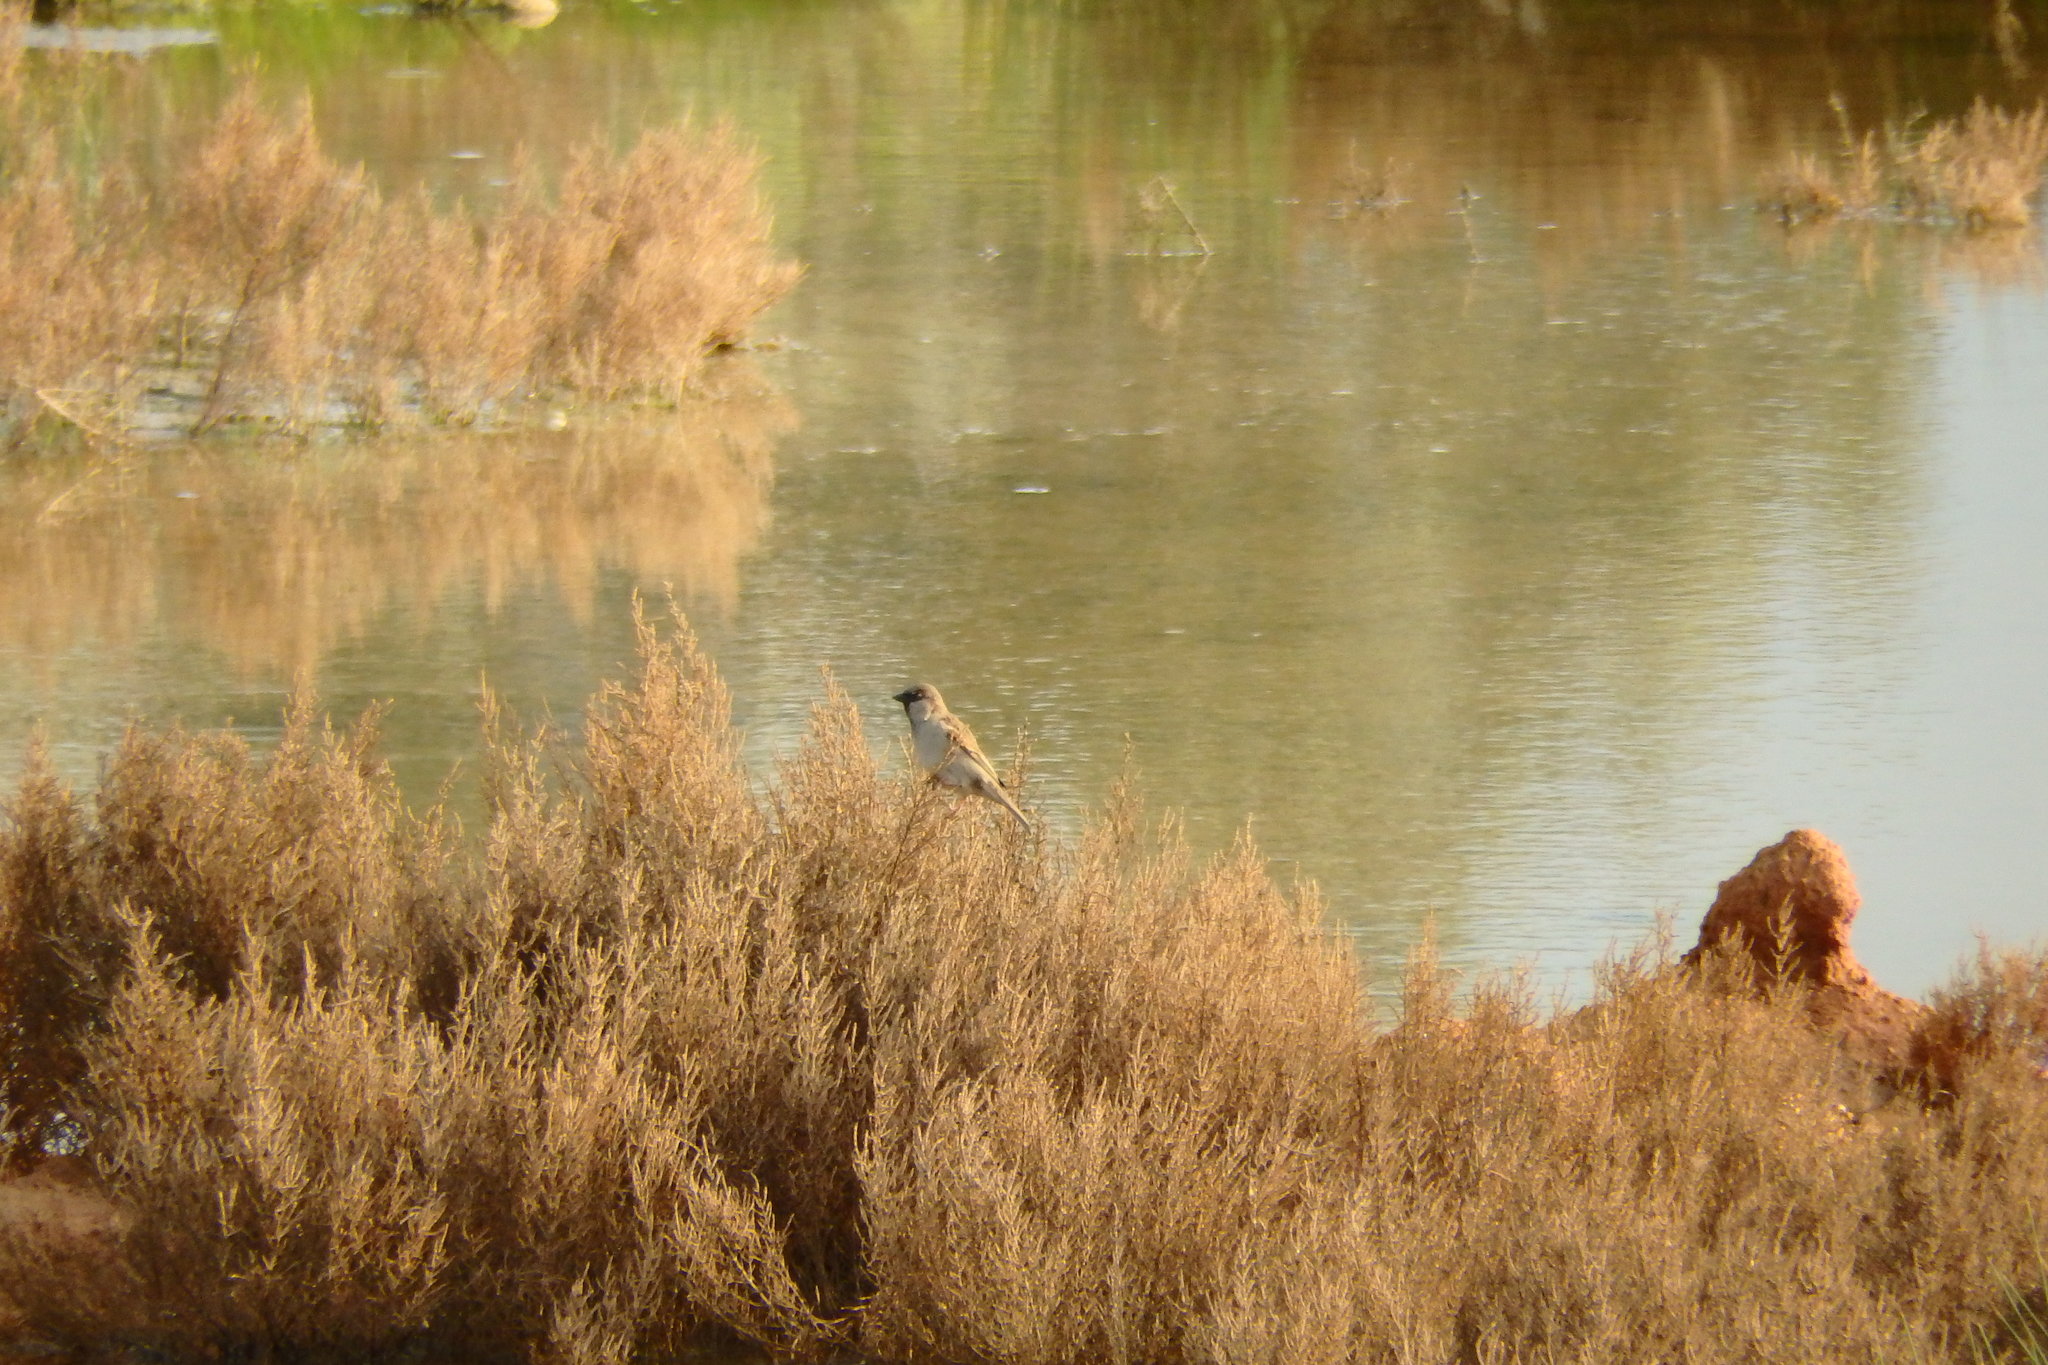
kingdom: Animalia
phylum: Chordata
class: Aves
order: Passeriformes
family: Passeridae
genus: Passer
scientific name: Passer domesticus
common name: House sparrow
